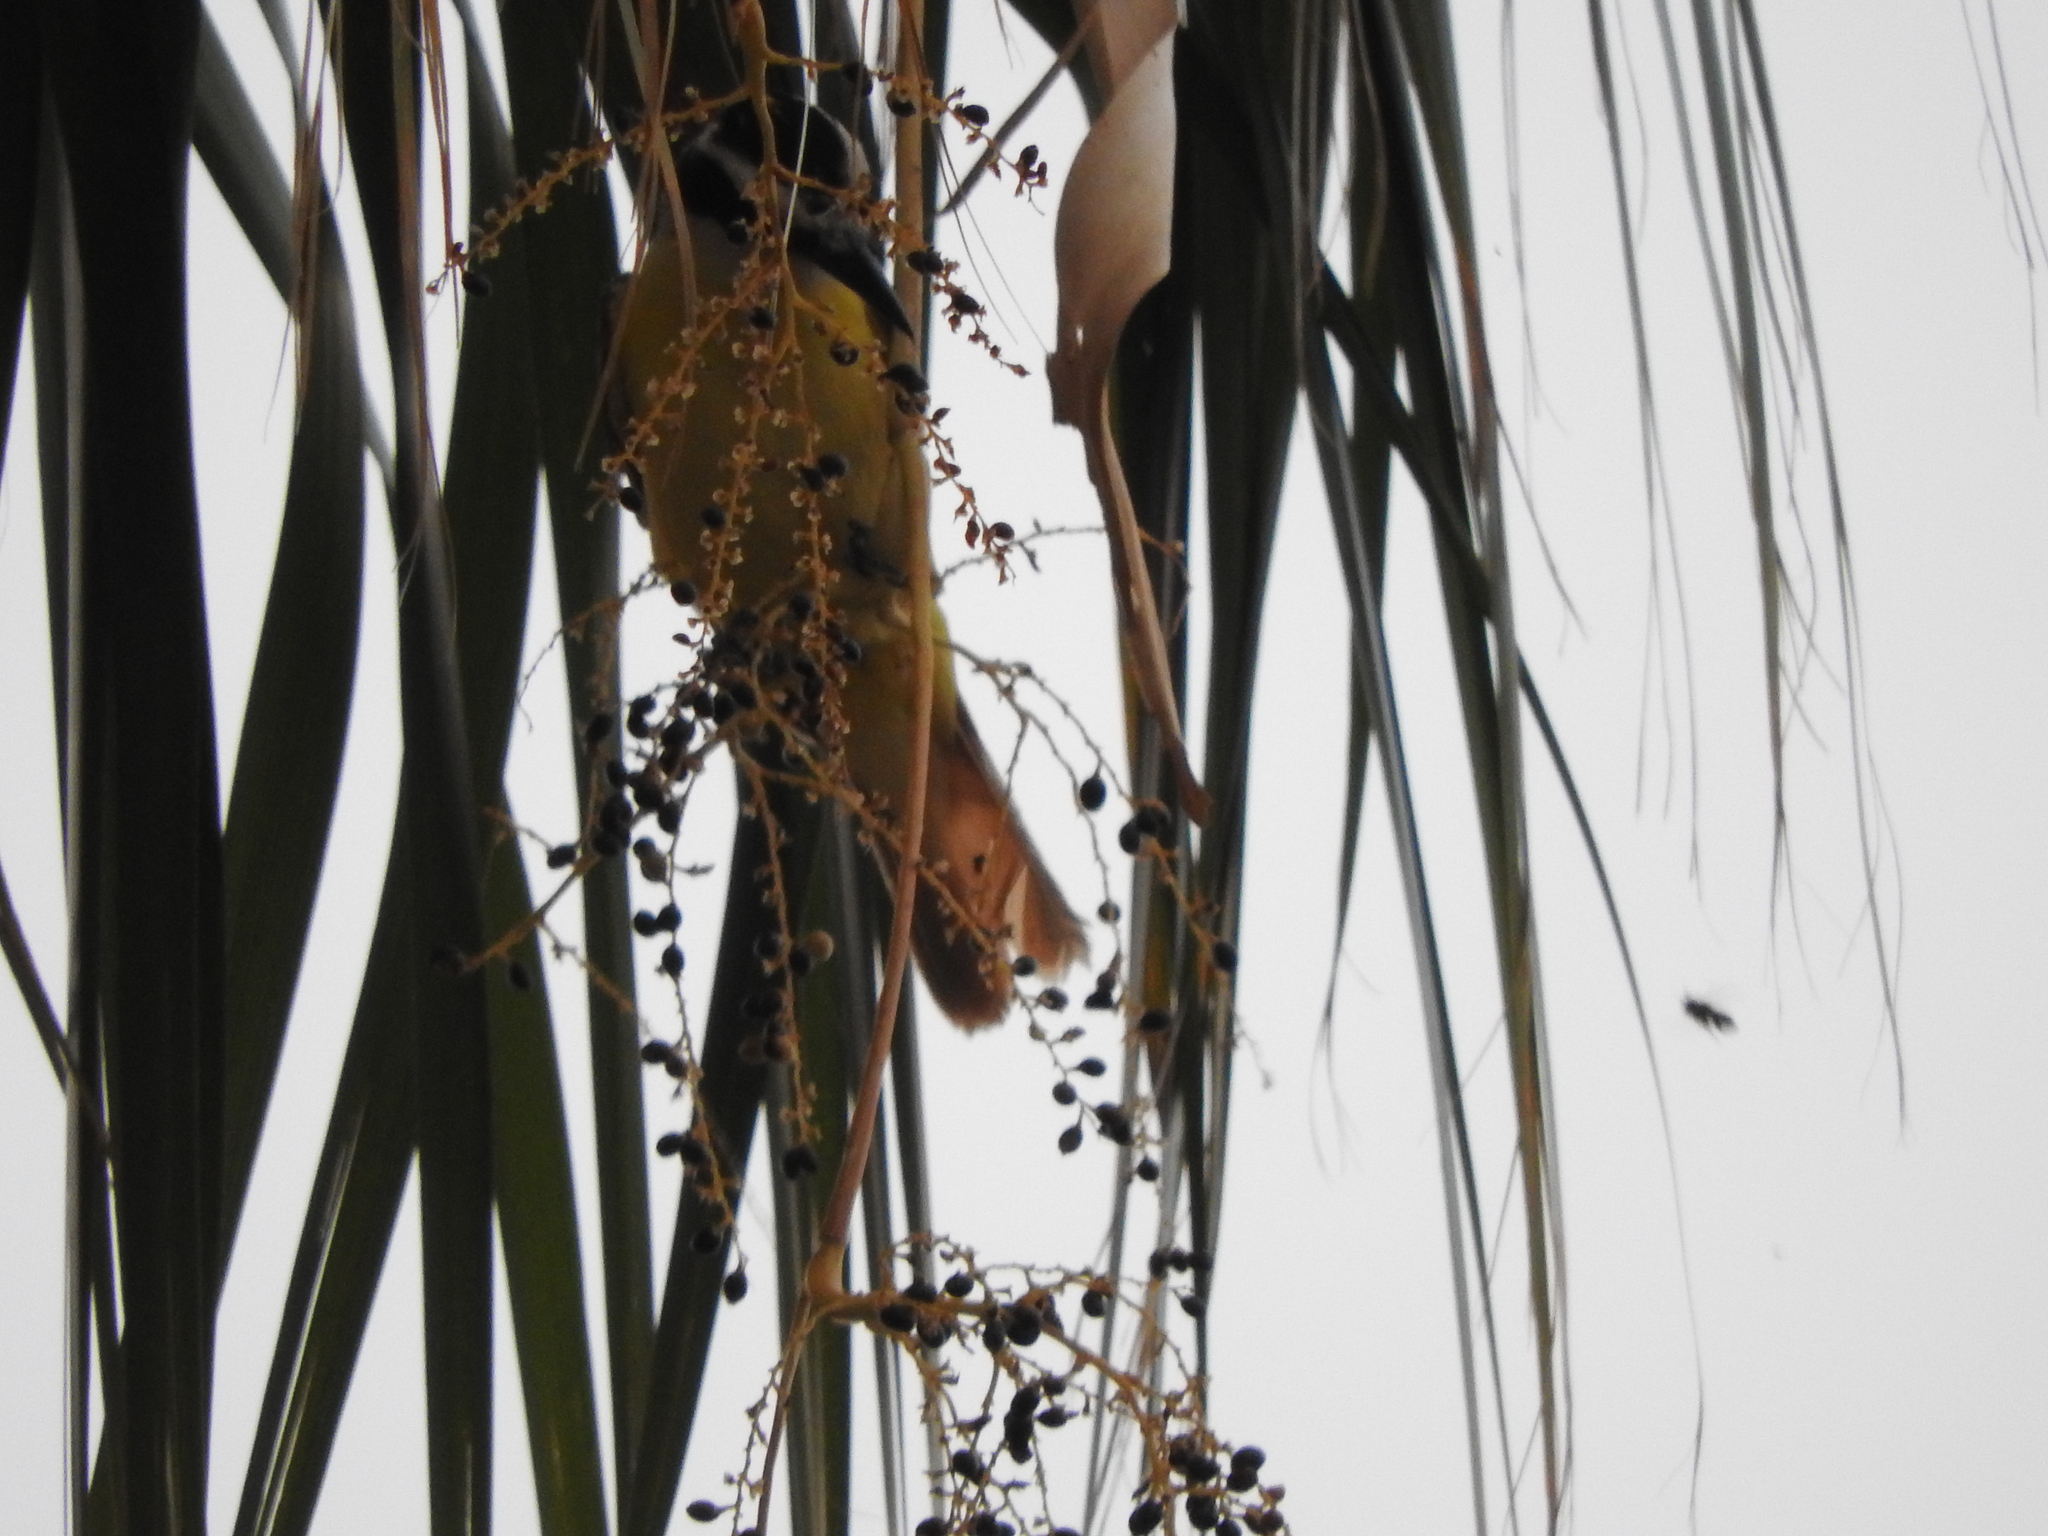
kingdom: Animalia
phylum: Chordata
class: Aves
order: Passeriformes
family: Tyrannidae
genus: Pitangus
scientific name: Pitangus sulphuratus
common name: Great kiskadee
